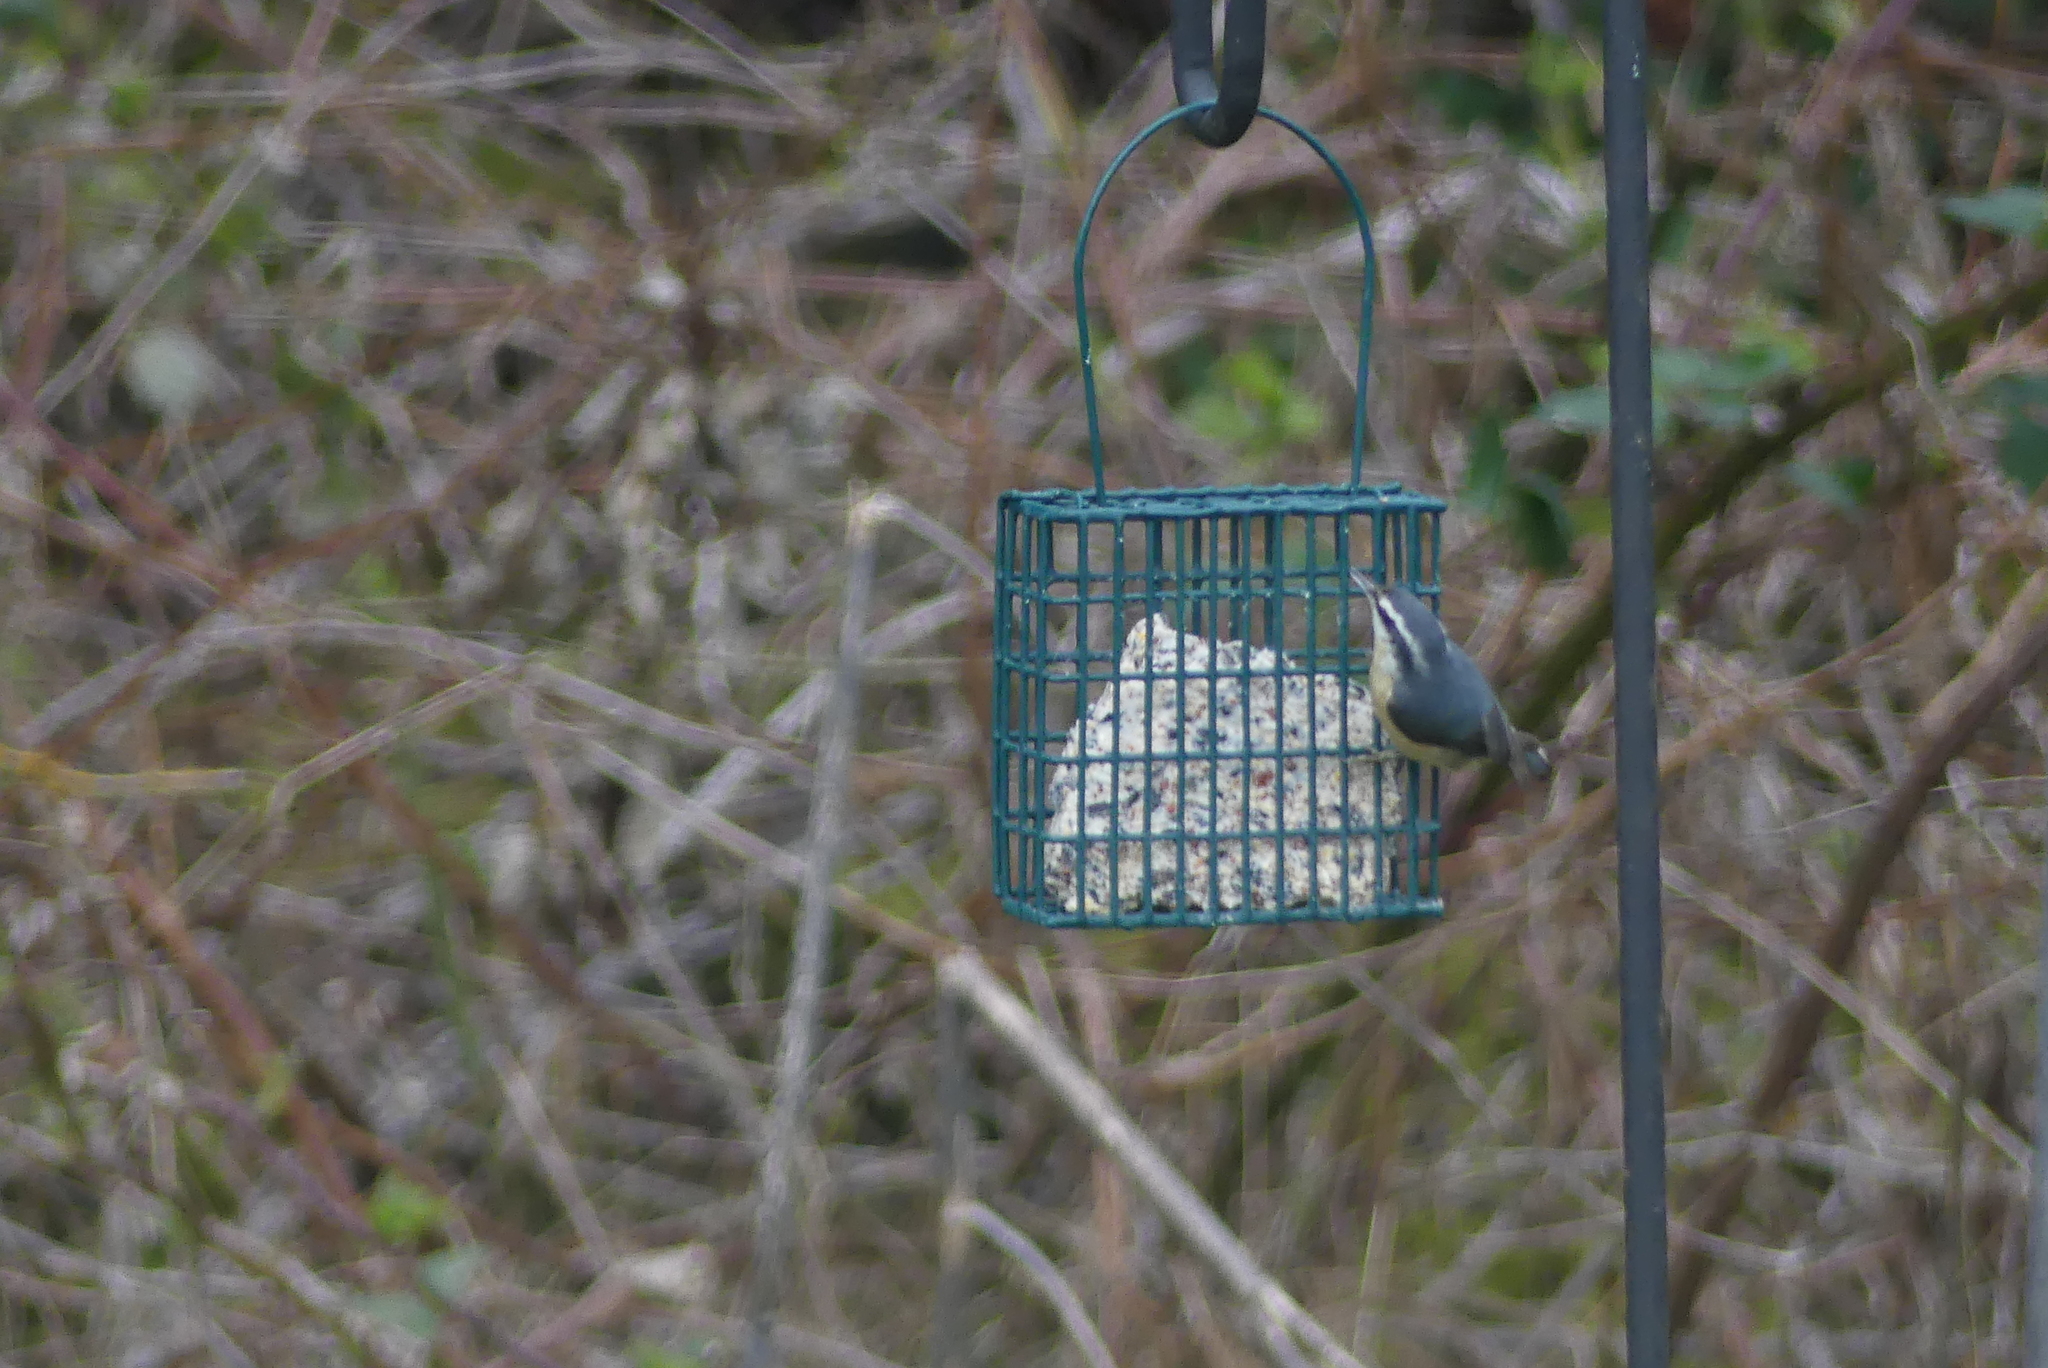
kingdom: Animalia
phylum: Chordata
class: Aves
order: Passeriformes
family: Sittidae
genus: Sitta
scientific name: Sitta canadensis
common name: Red-breasted nuthatch
